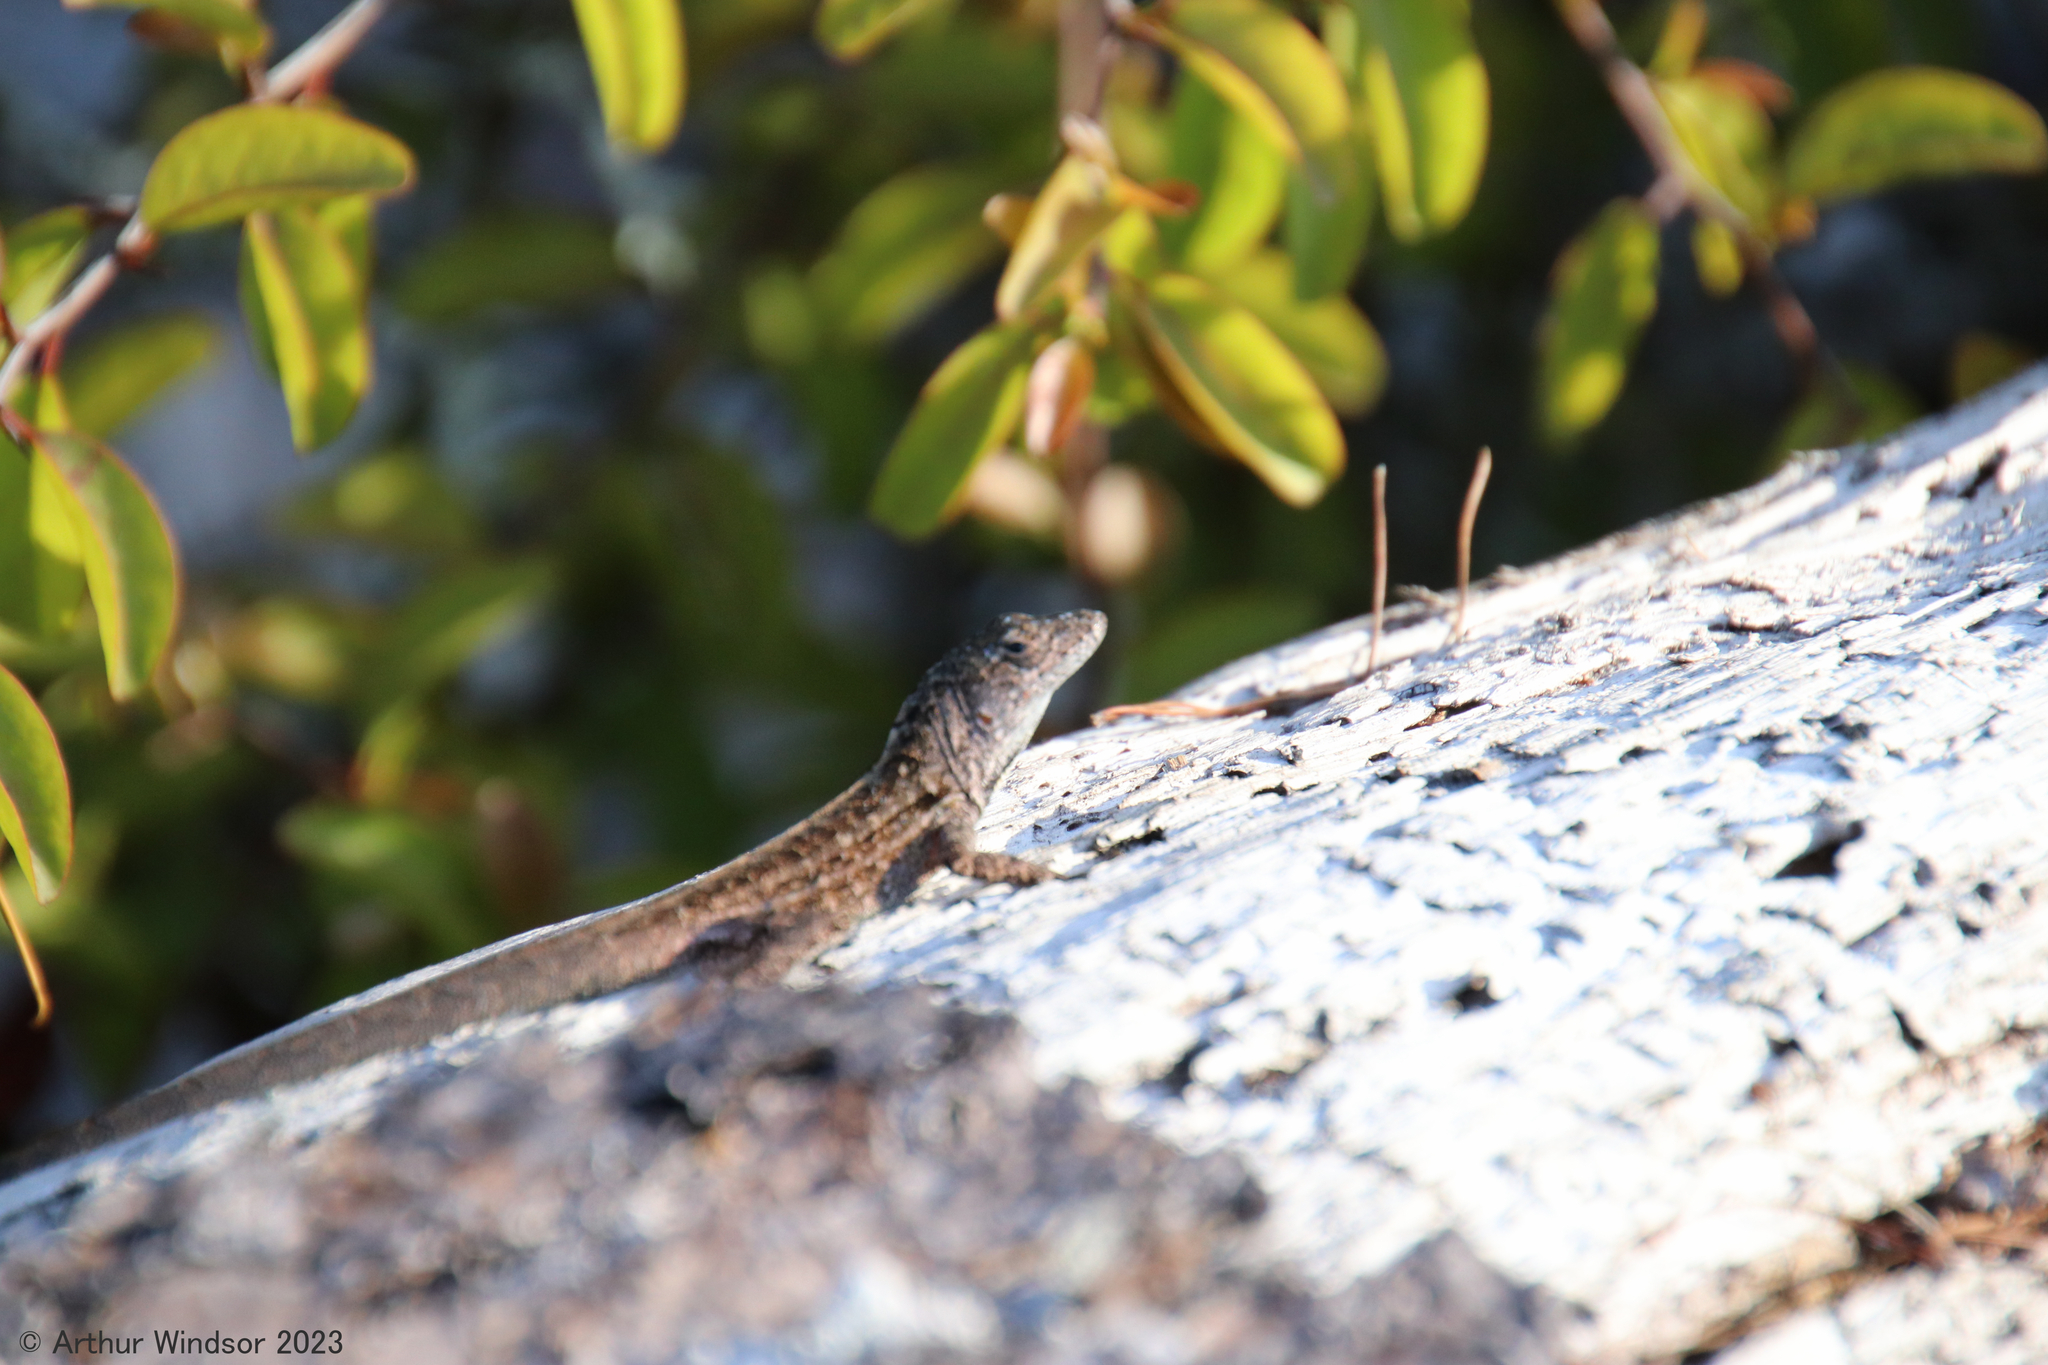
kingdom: Animalia
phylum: Chordata
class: Squamata
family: Dactyloidae
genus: Anolis
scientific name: Anolis sagrei
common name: Brown anole
